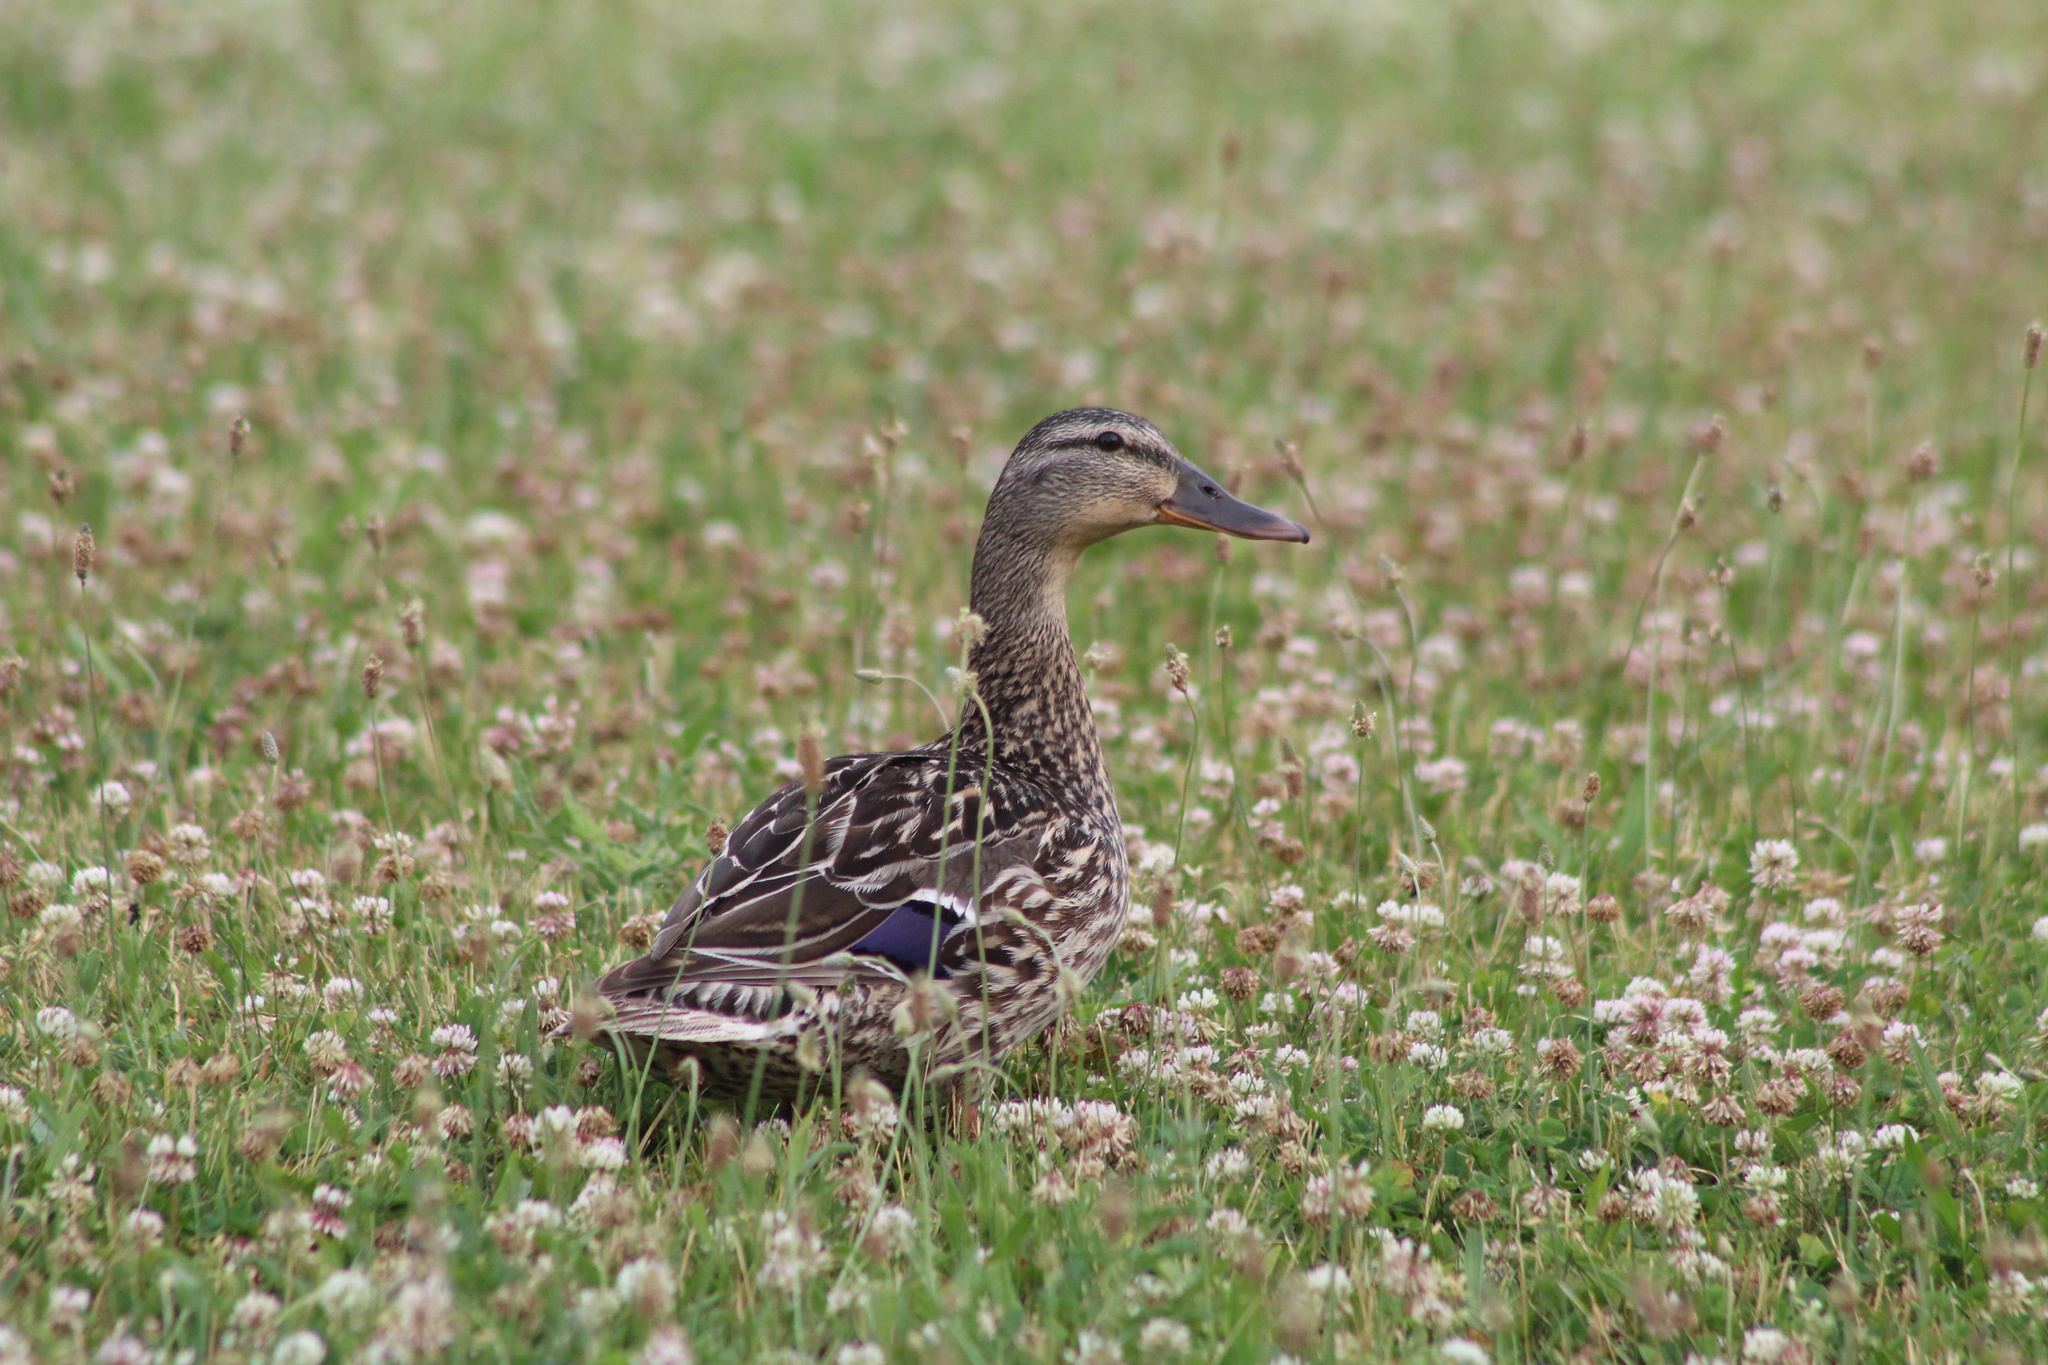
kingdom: Animalia
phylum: Chordata
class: Aves
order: Anseriformes
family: Anatidae
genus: Anas
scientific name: Anas platyrhynchos
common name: Mallard
